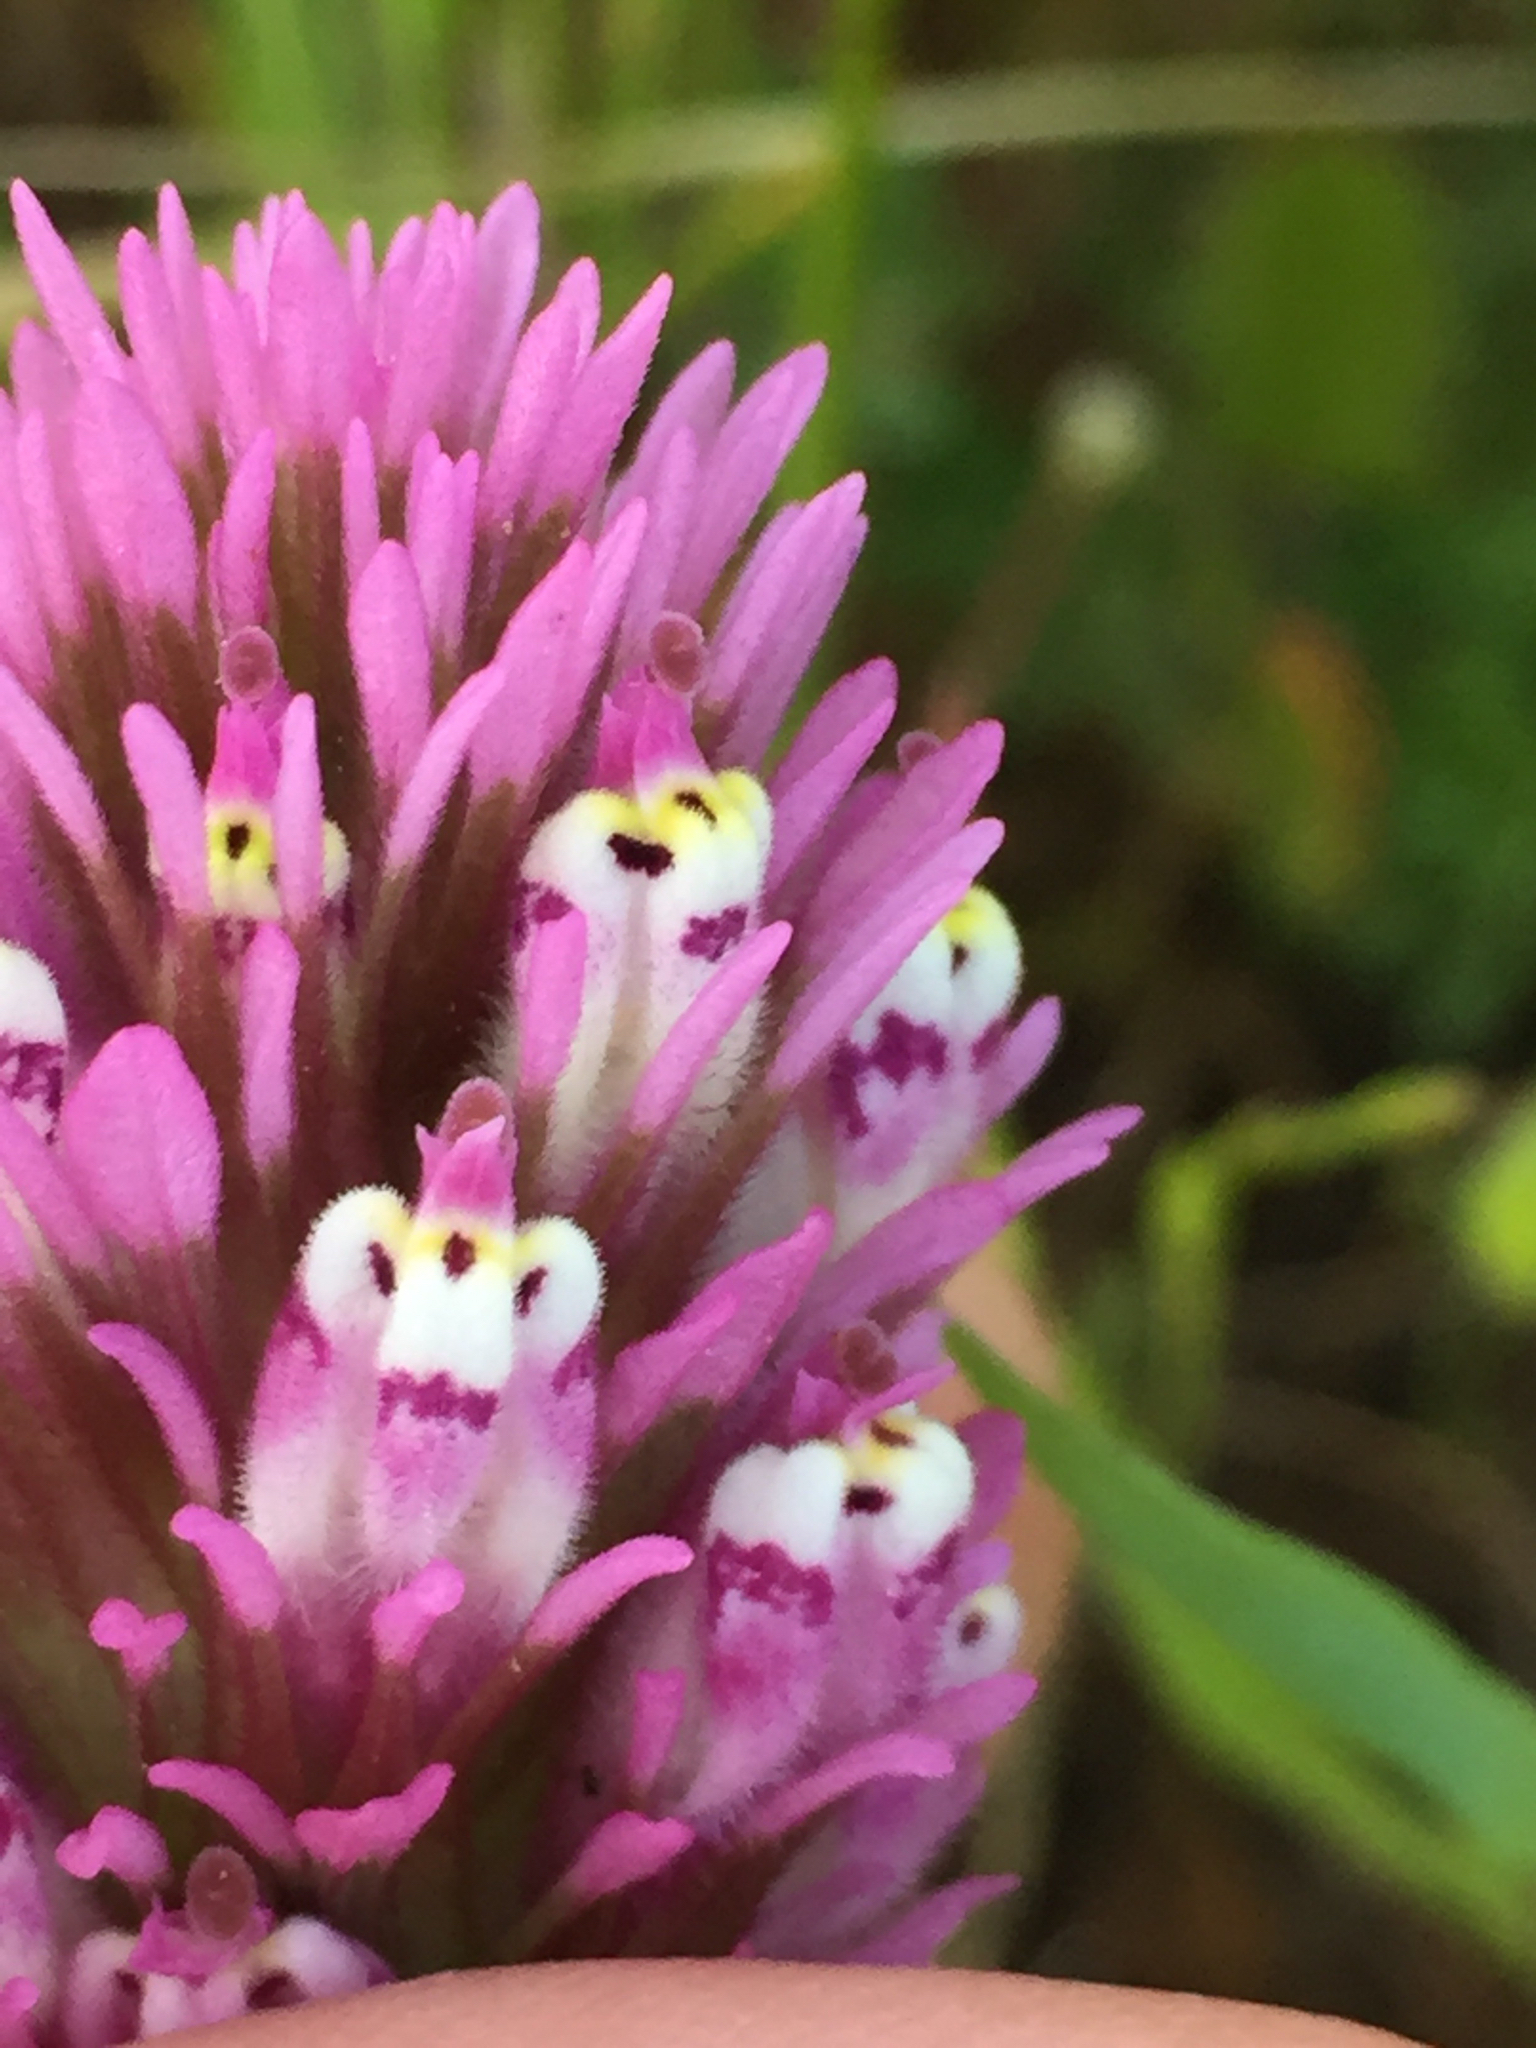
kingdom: Plantae
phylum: Tracheophyta
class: Magnoliopsida
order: Lamiales
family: Orobanchaceae
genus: Castilleja
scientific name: Castilleja densiflora
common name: Dense-flower indian paintbrush
